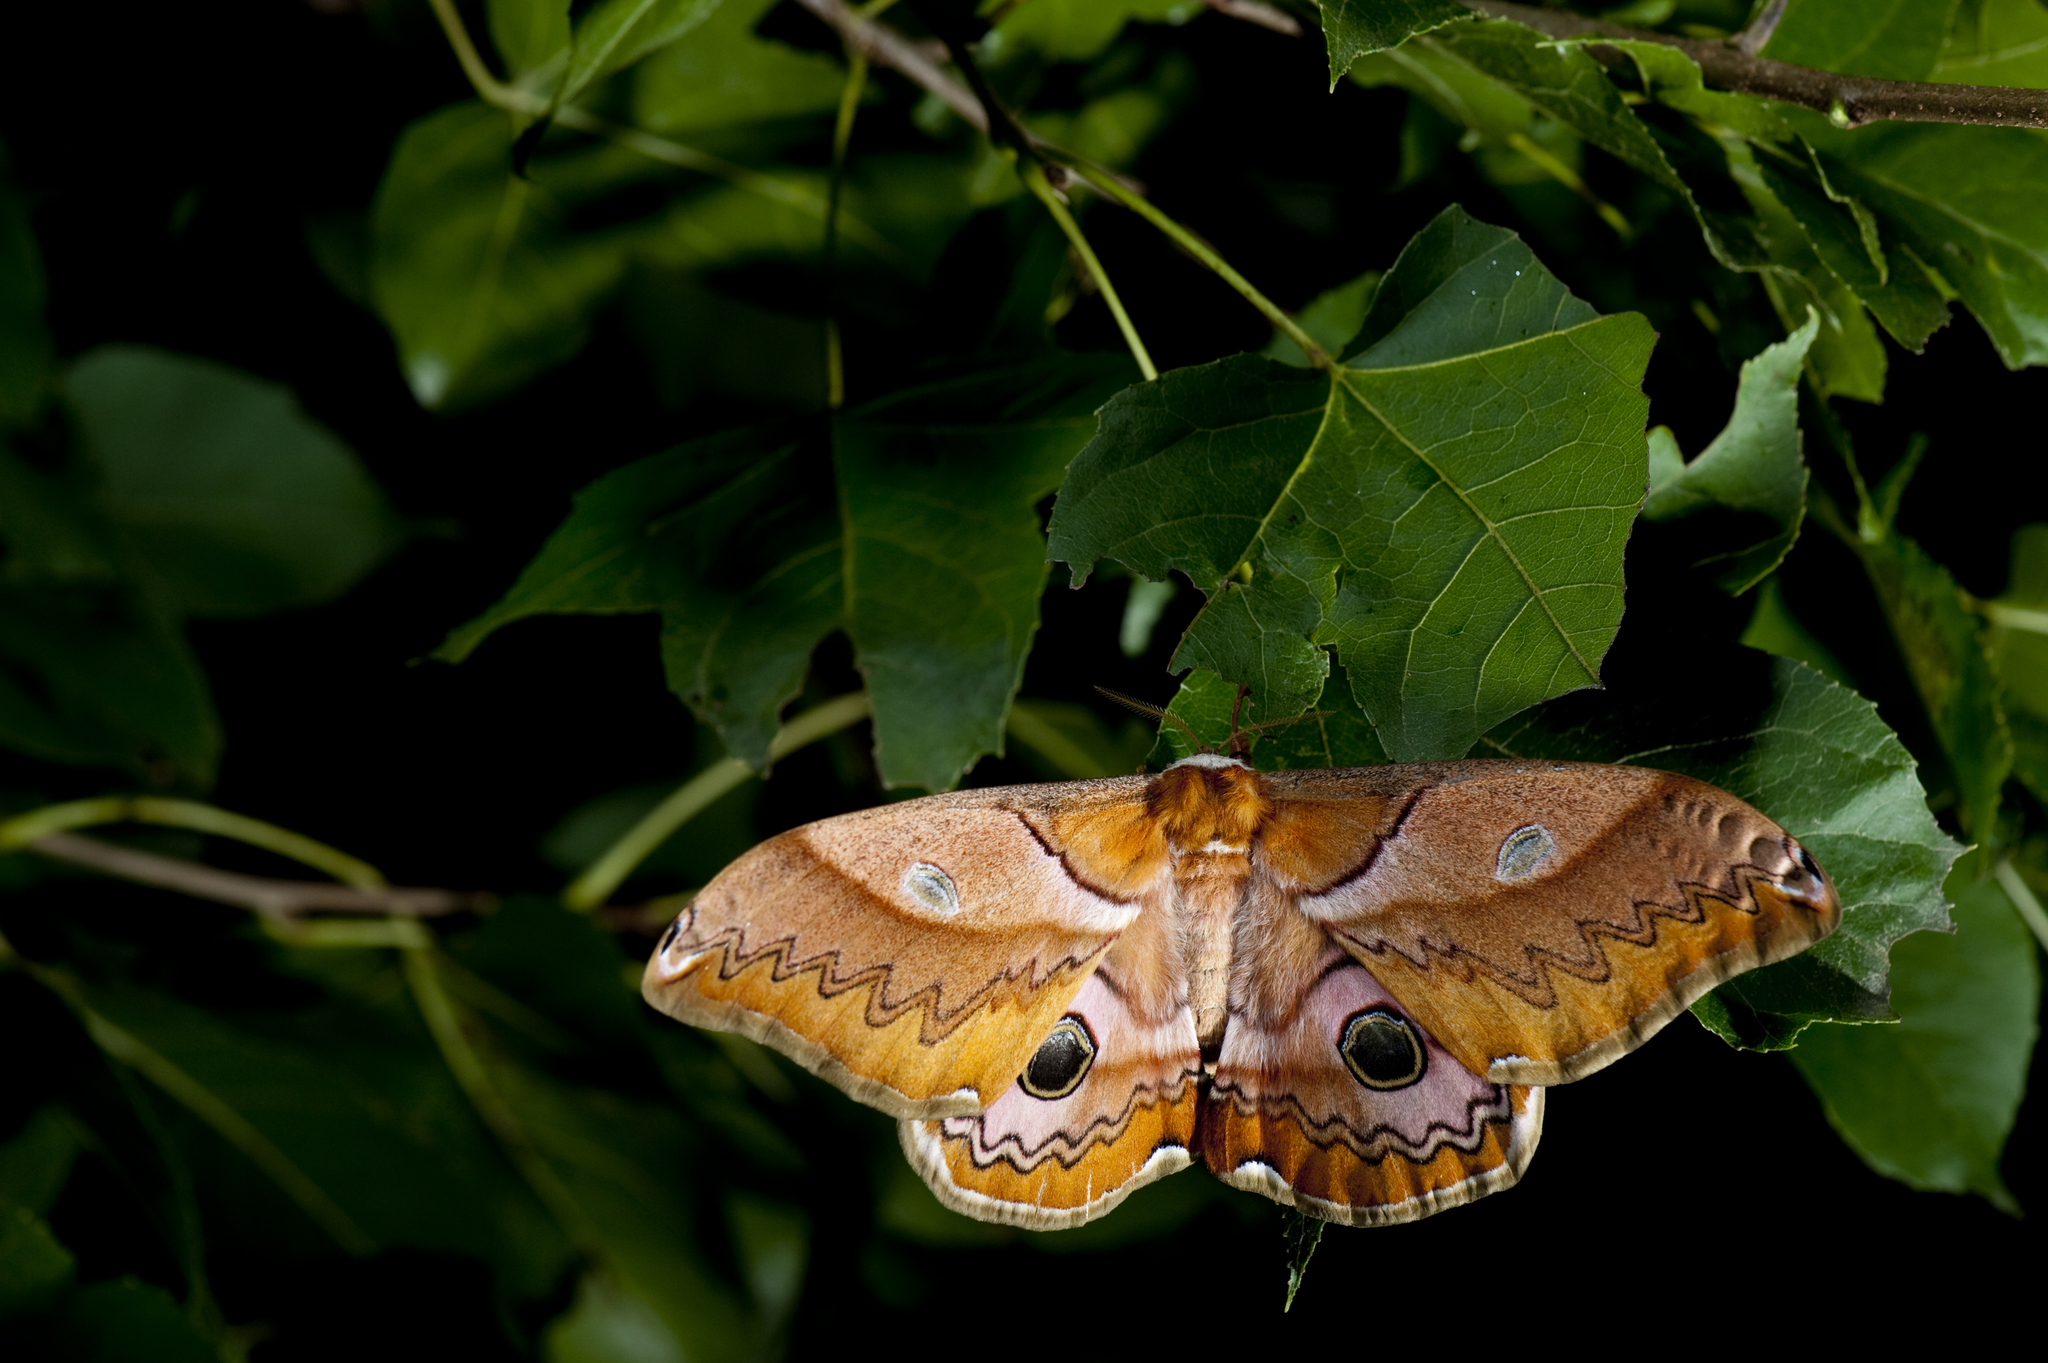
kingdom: Animalia
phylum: Arthropoda
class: Insecta
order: Lepidoptera
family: Saturniidae
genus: Saturnia
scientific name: Saturnia japonica
